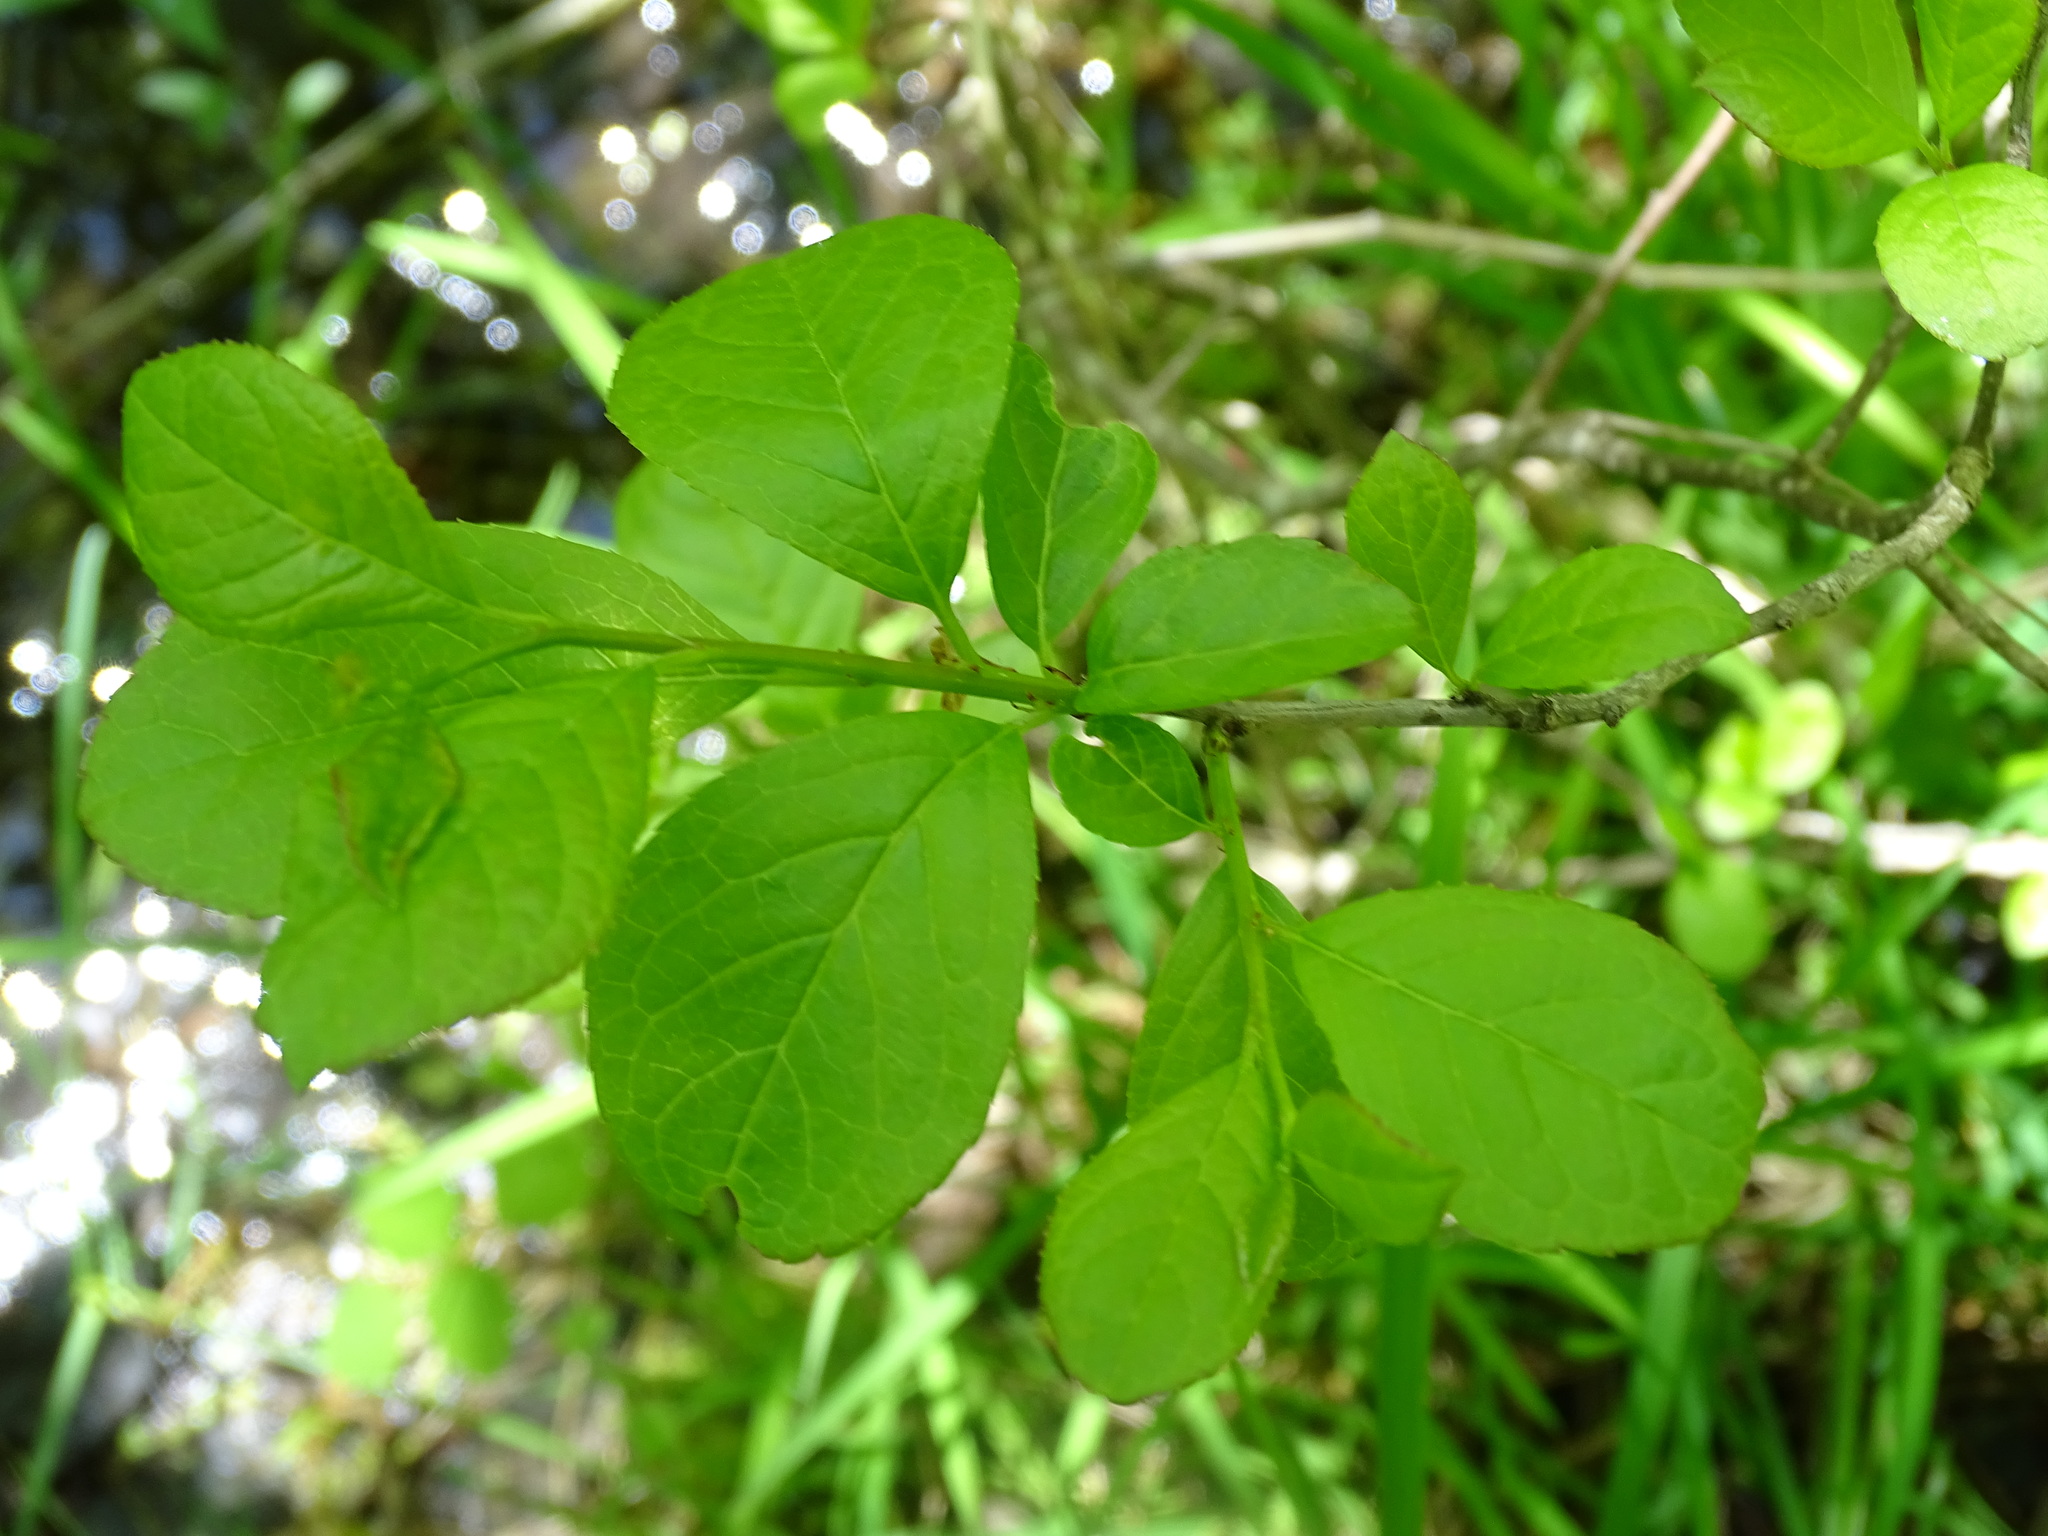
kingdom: Plantae
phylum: Tracheophyta
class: Magnoliopsida
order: Aquifoliales
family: Aquifoliaceae
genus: Ilex
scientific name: Ilex verticillata
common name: Virginia winterberry
